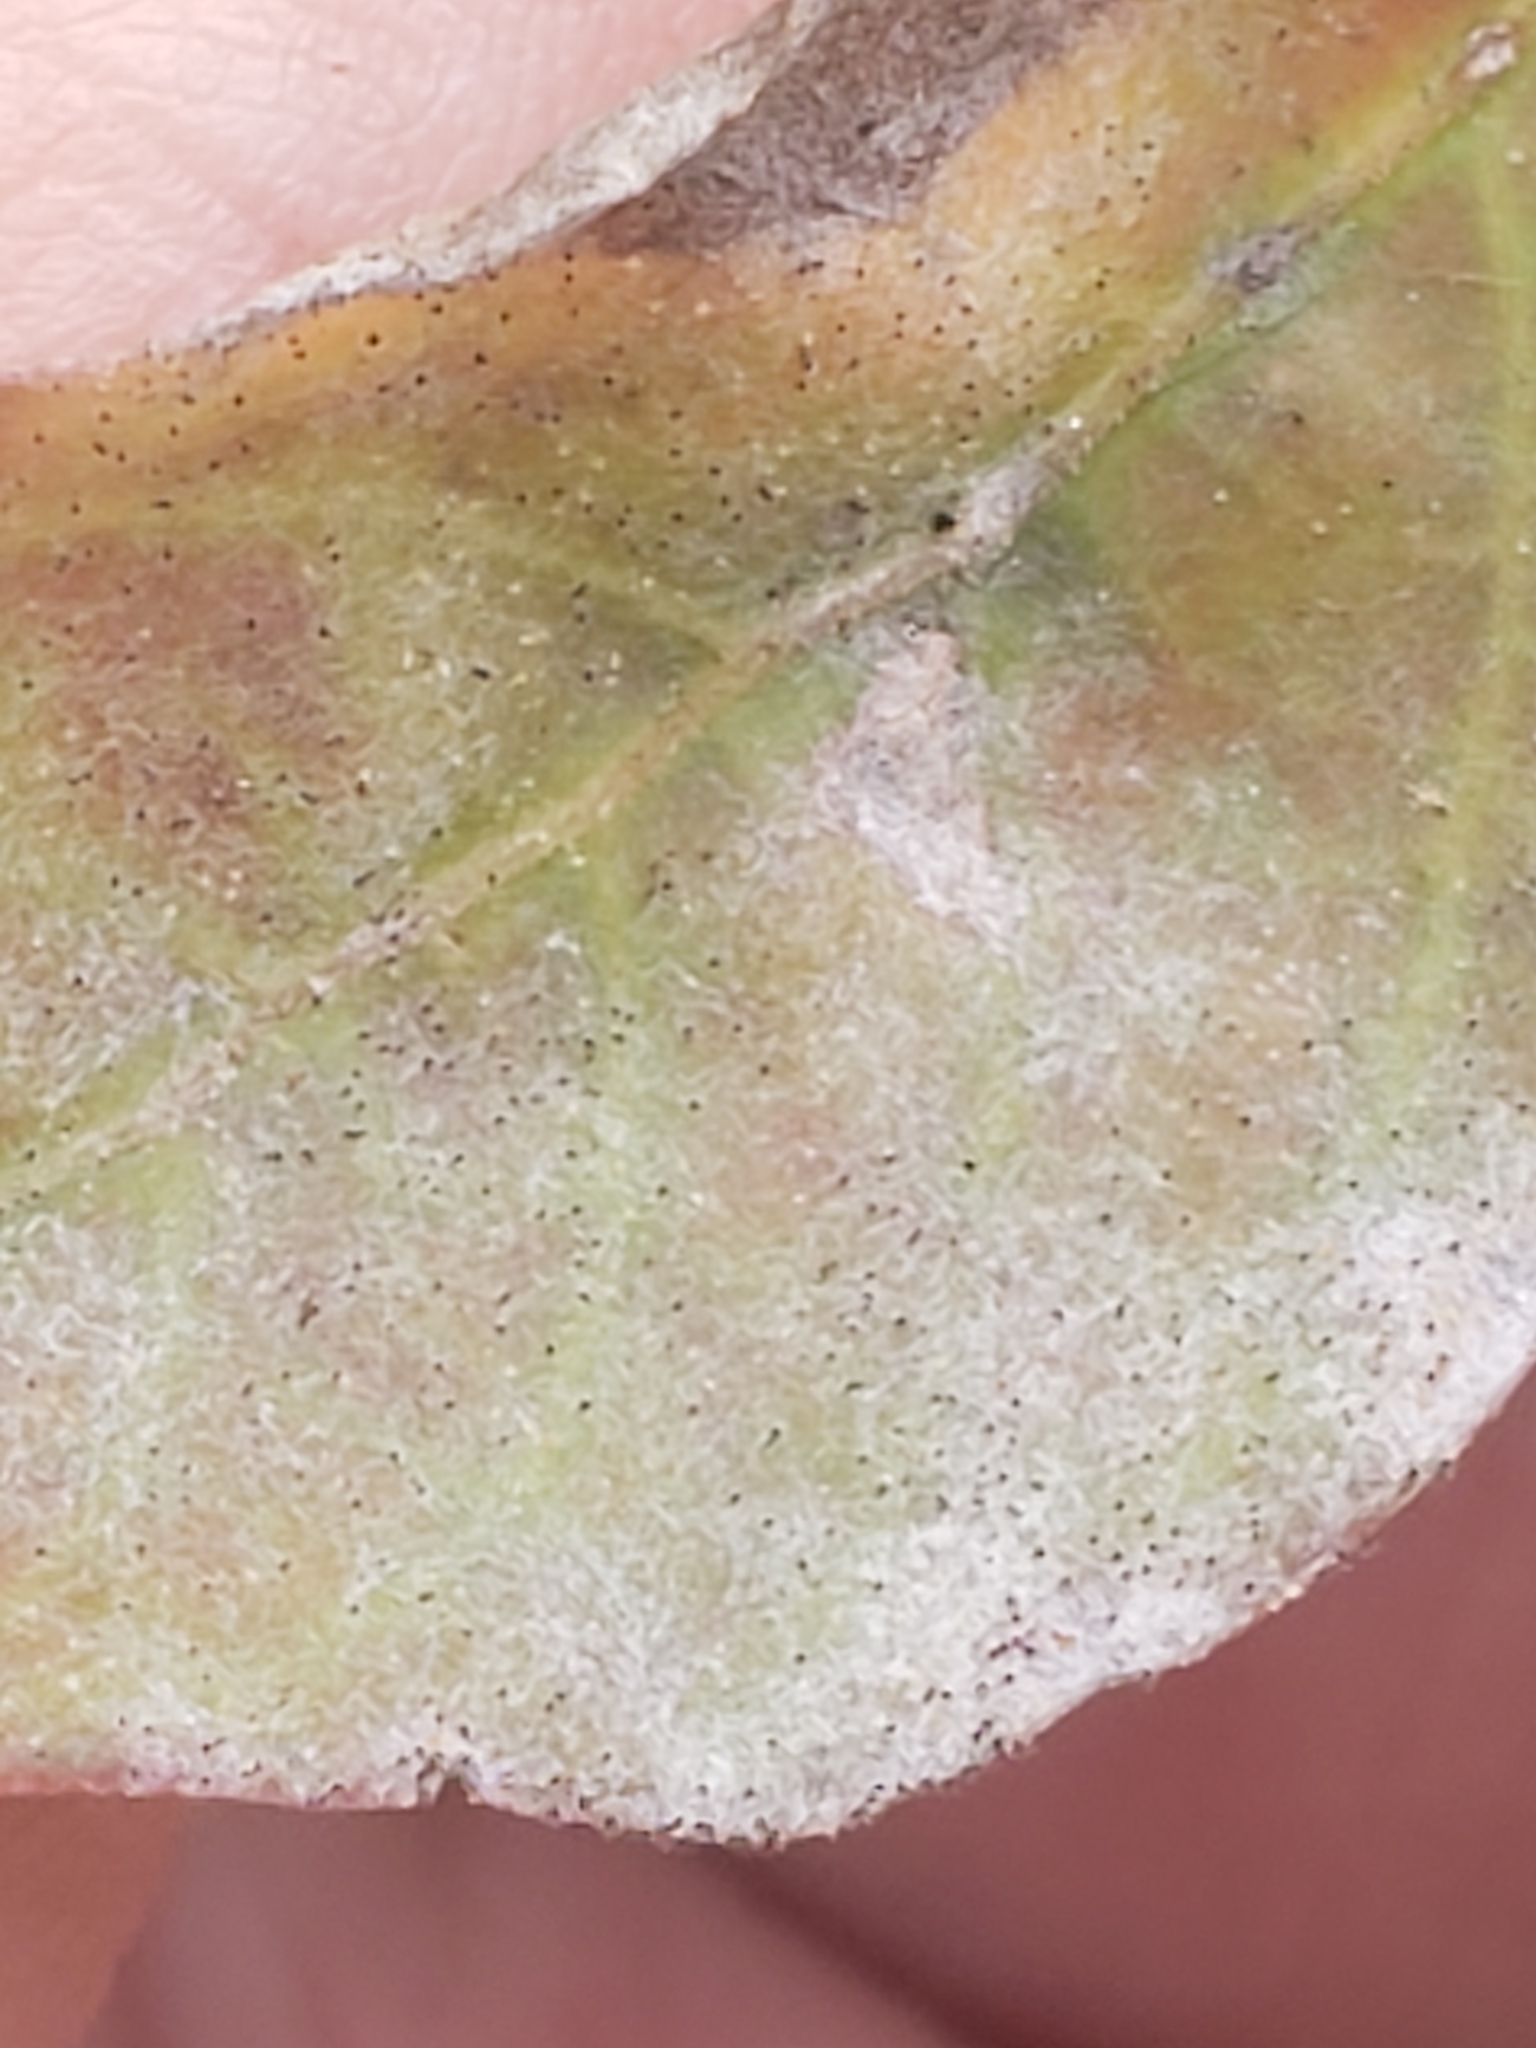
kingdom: Fungi
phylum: Ascomycota
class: Leotiomycetes
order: Helotiales
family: Erysiphaceae
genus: Erysiphe
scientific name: Erysiphe australiana
